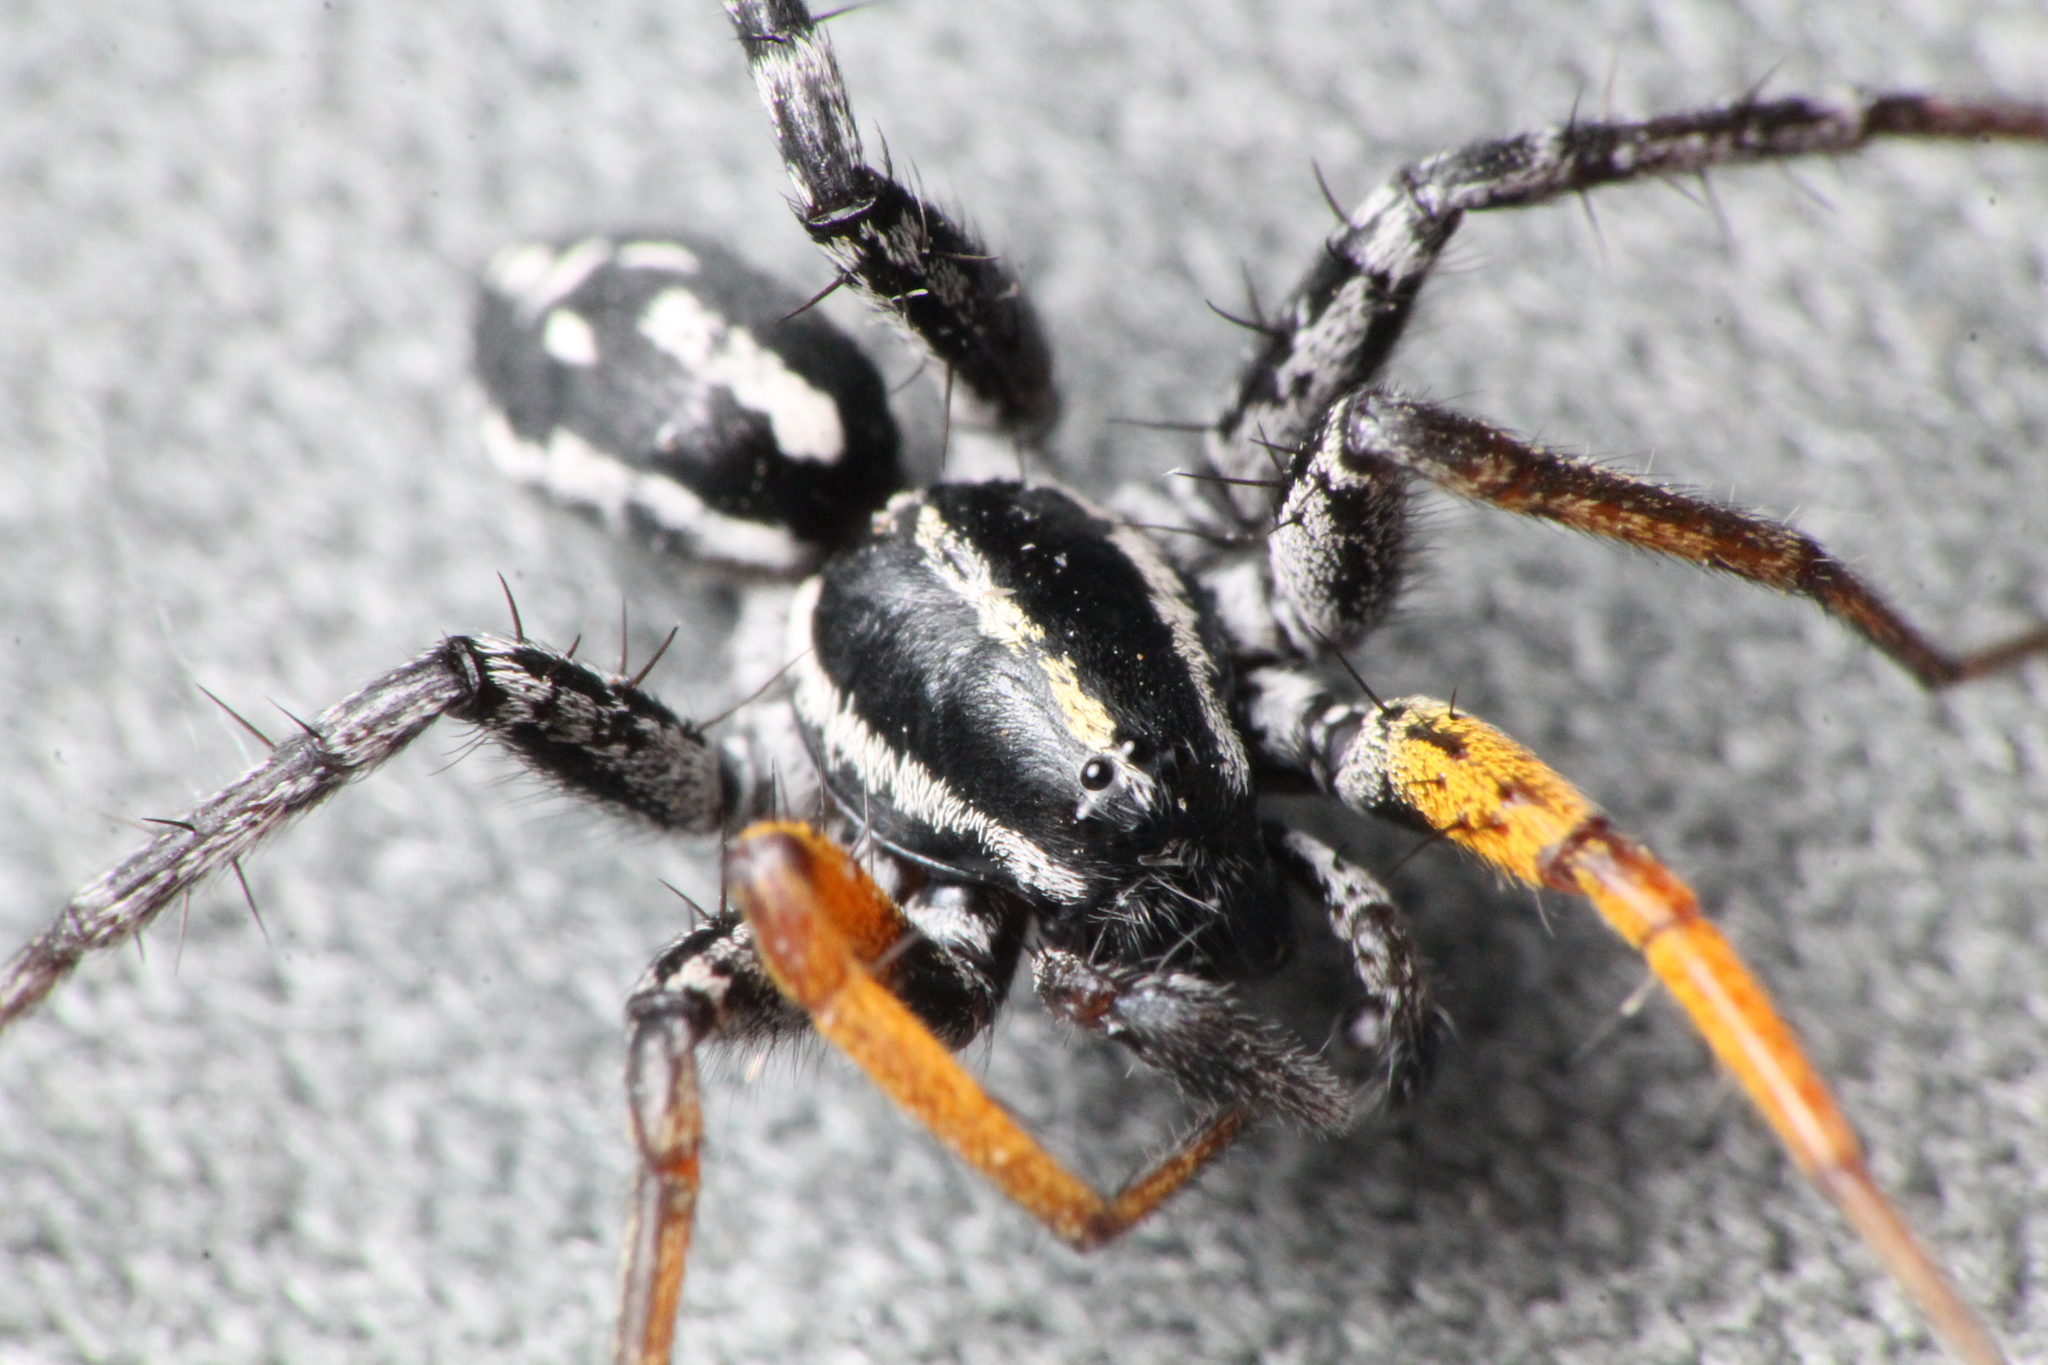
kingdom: Animalia
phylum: Arthropoda
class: Arachnida
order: Araneae
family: Corinnidae
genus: Nyssus
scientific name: Nyssus coloripes
